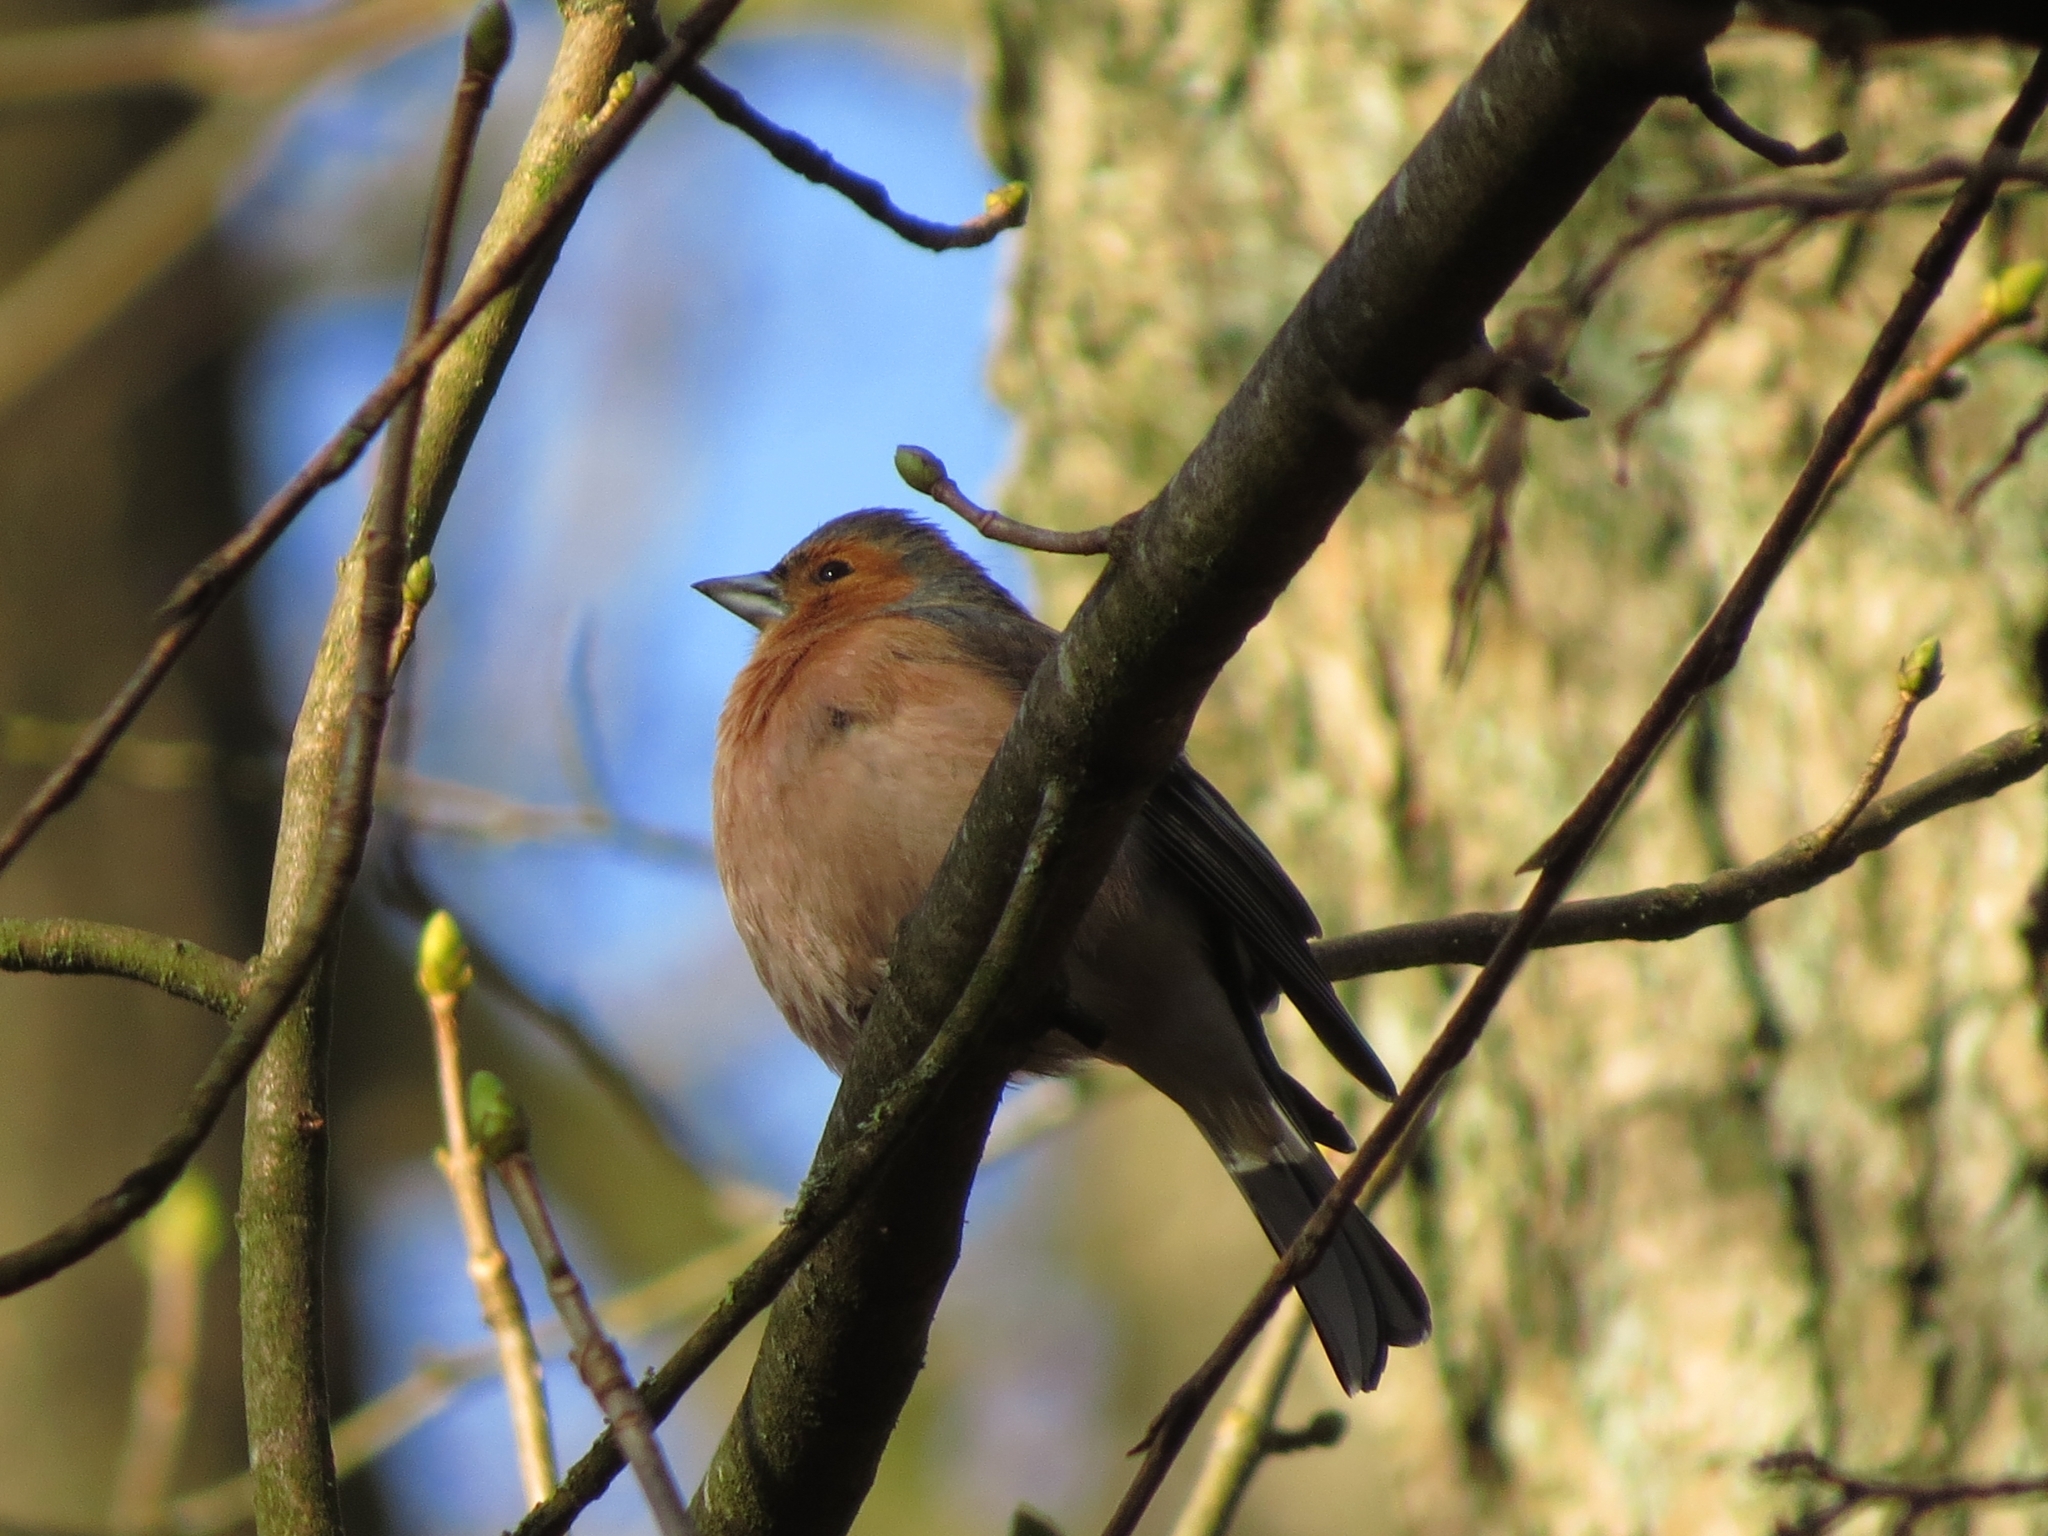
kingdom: Animalia
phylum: Chordata
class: Aves
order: Passeriformes
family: Fringillidae
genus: Fringilla
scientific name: Fringilla coelebs
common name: Common chaffinch
